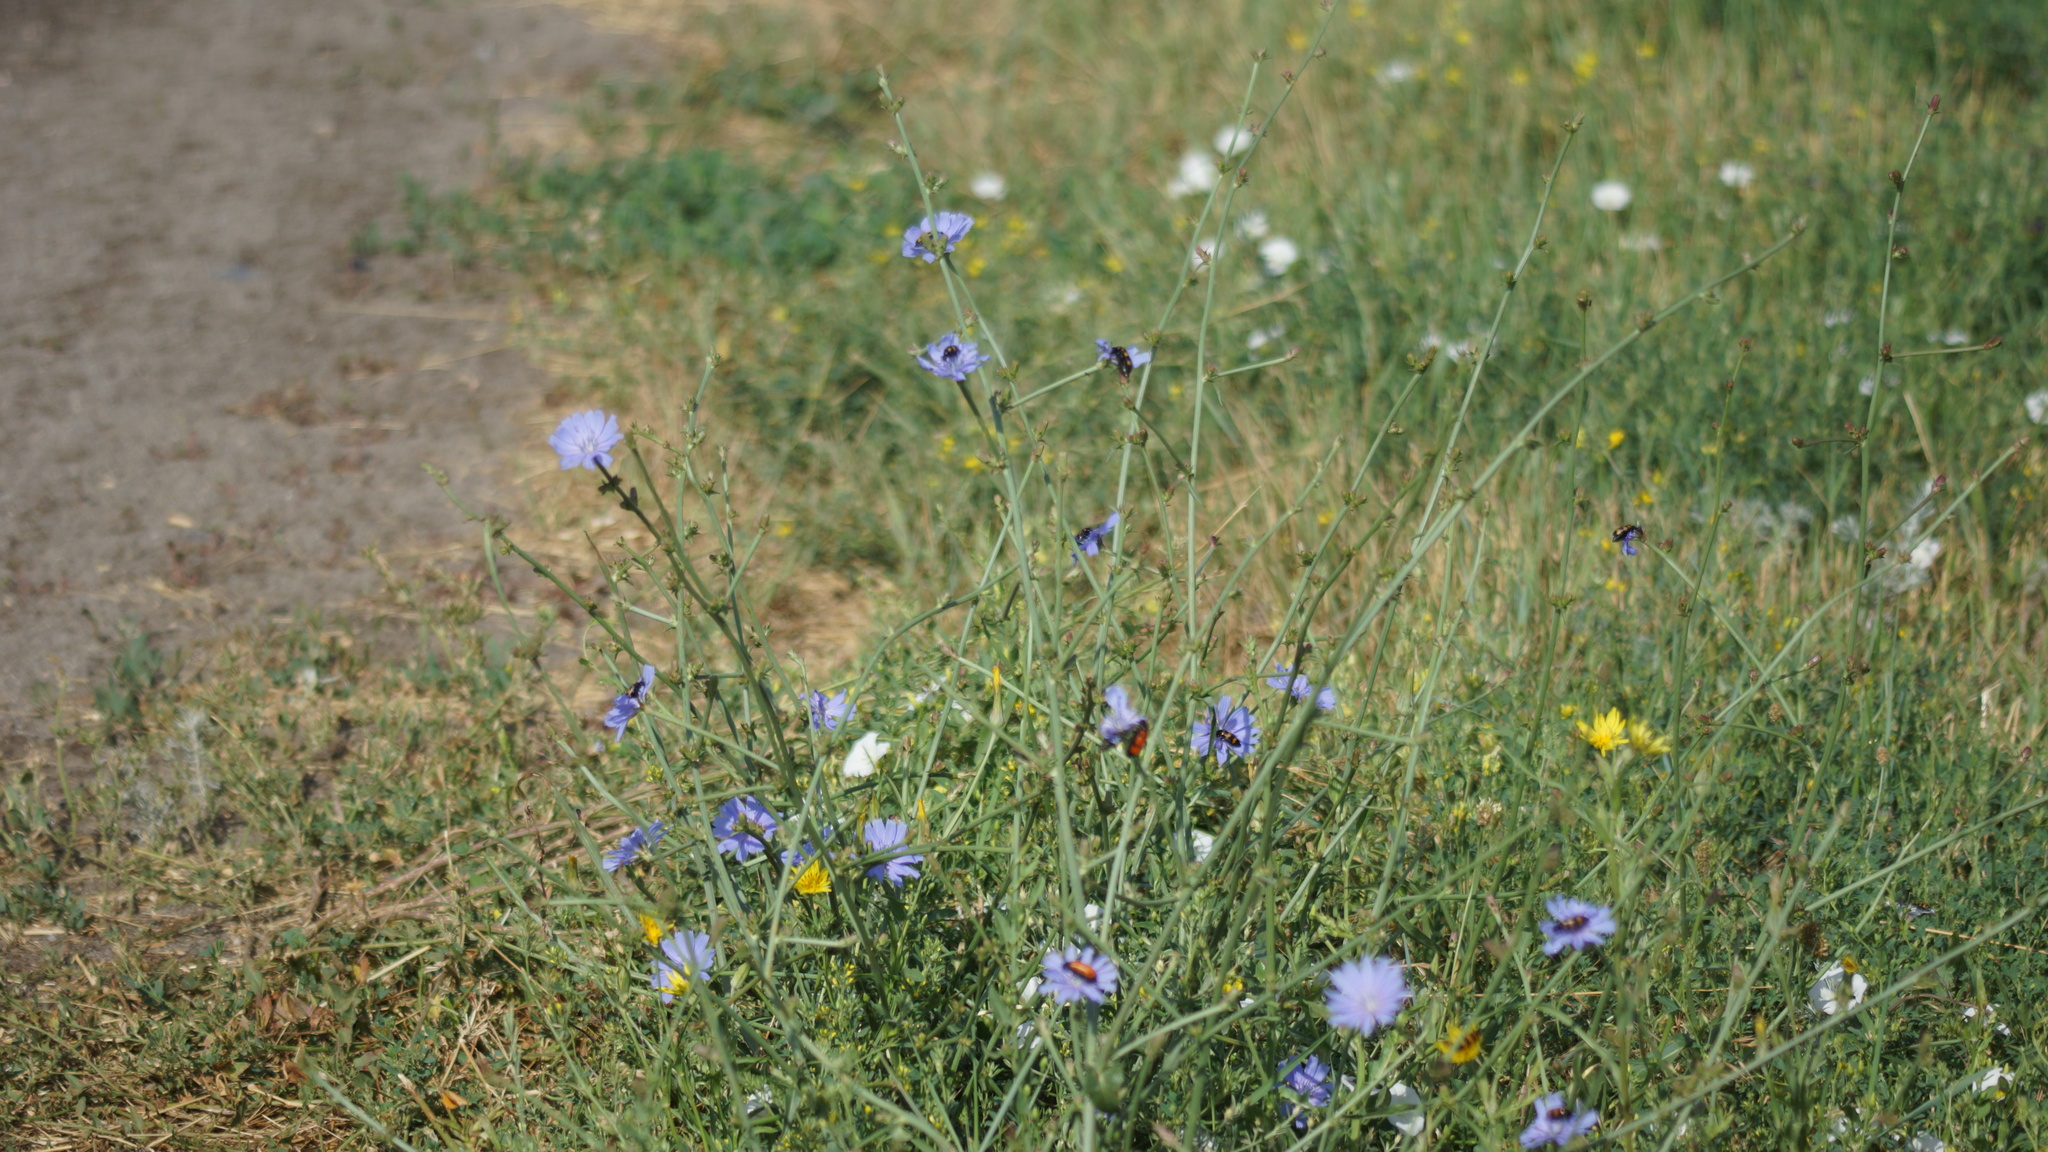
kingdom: Plantae
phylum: Tracheophyta
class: Magnoliopsida
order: Asterales
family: Asteraceae
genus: Cichorium
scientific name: Cichorium intybus
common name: Chicory
